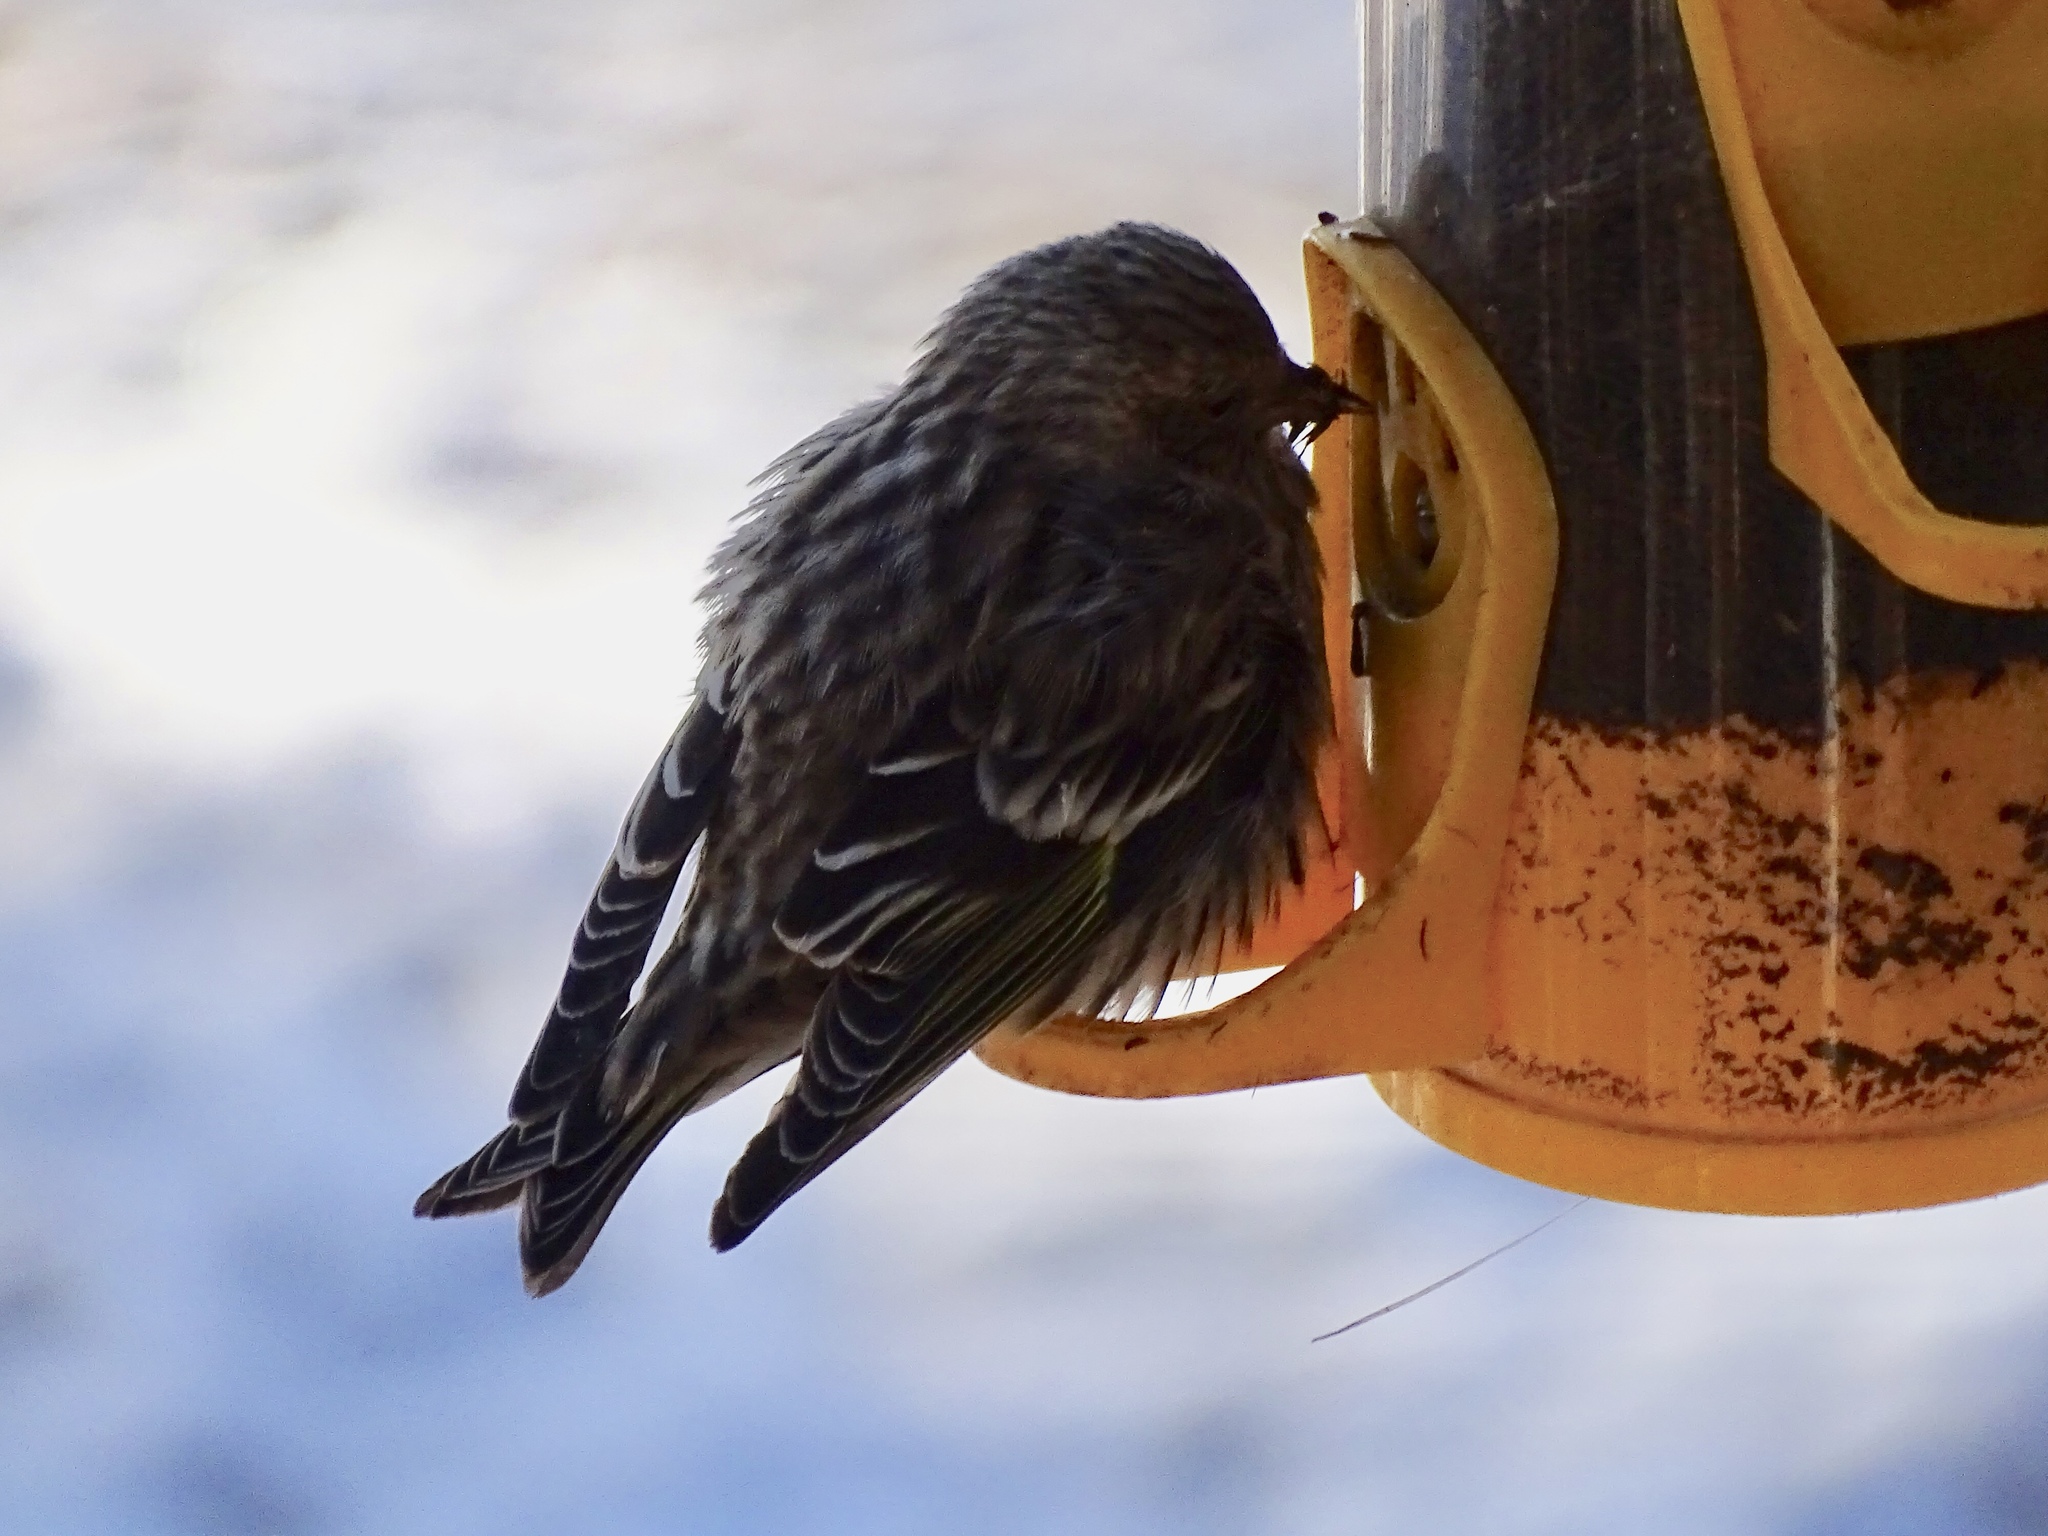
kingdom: Animalia
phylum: Chordata
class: Aves
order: Passeriformes
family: Fringillidae
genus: Spinus
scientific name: Spinus pinus
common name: Pine siskin
